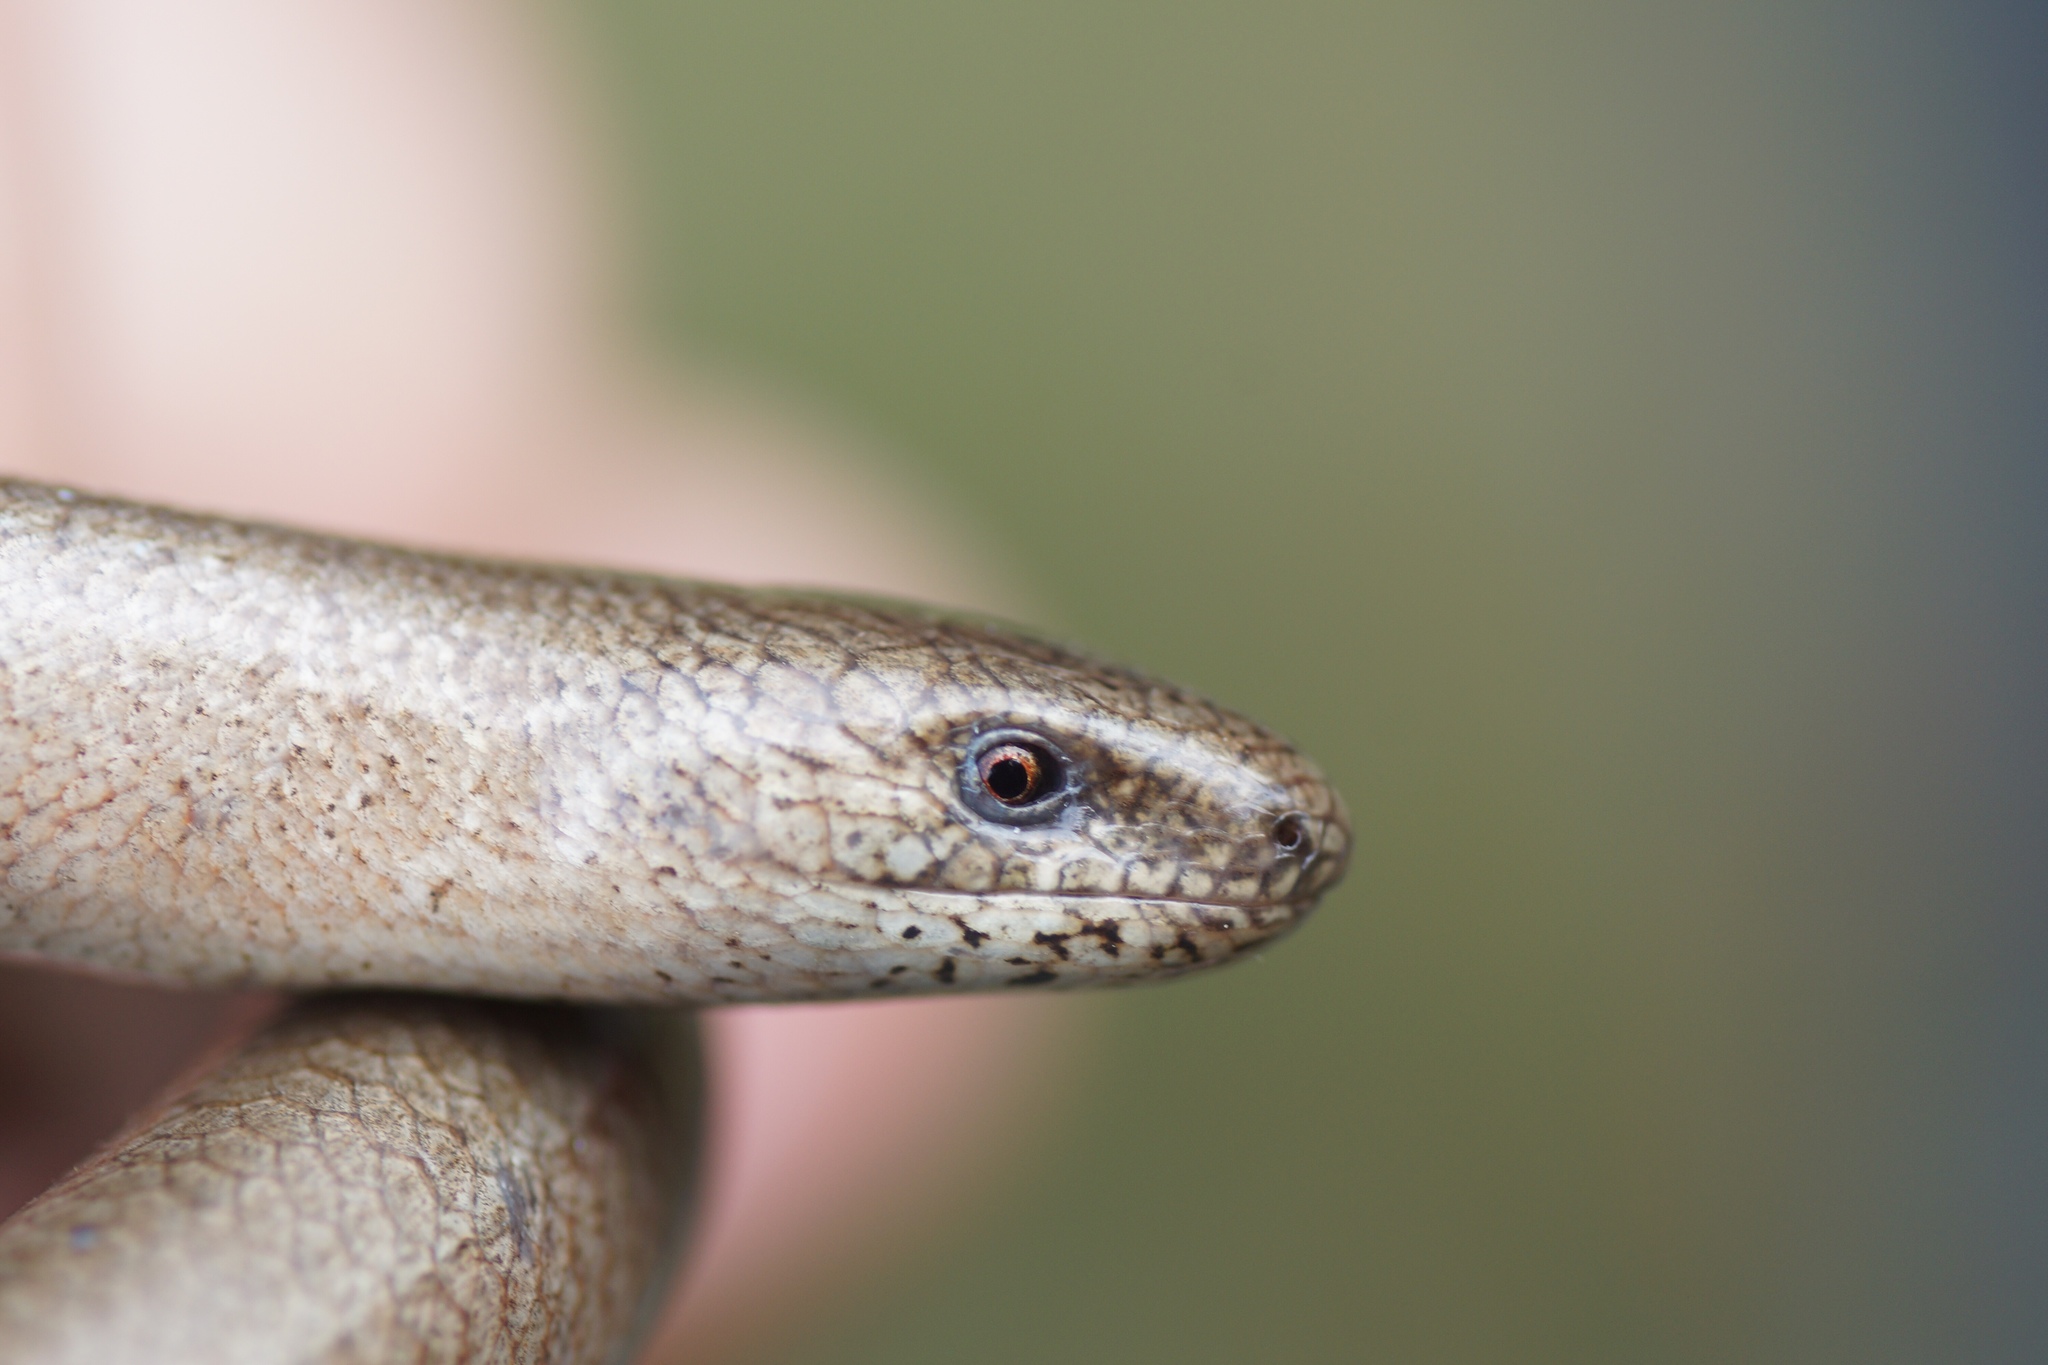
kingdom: Animalia
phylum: Chordata
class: Squamata
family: Anguidae
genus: Anguis
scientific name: Anguis fragilis
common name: Slow worm
